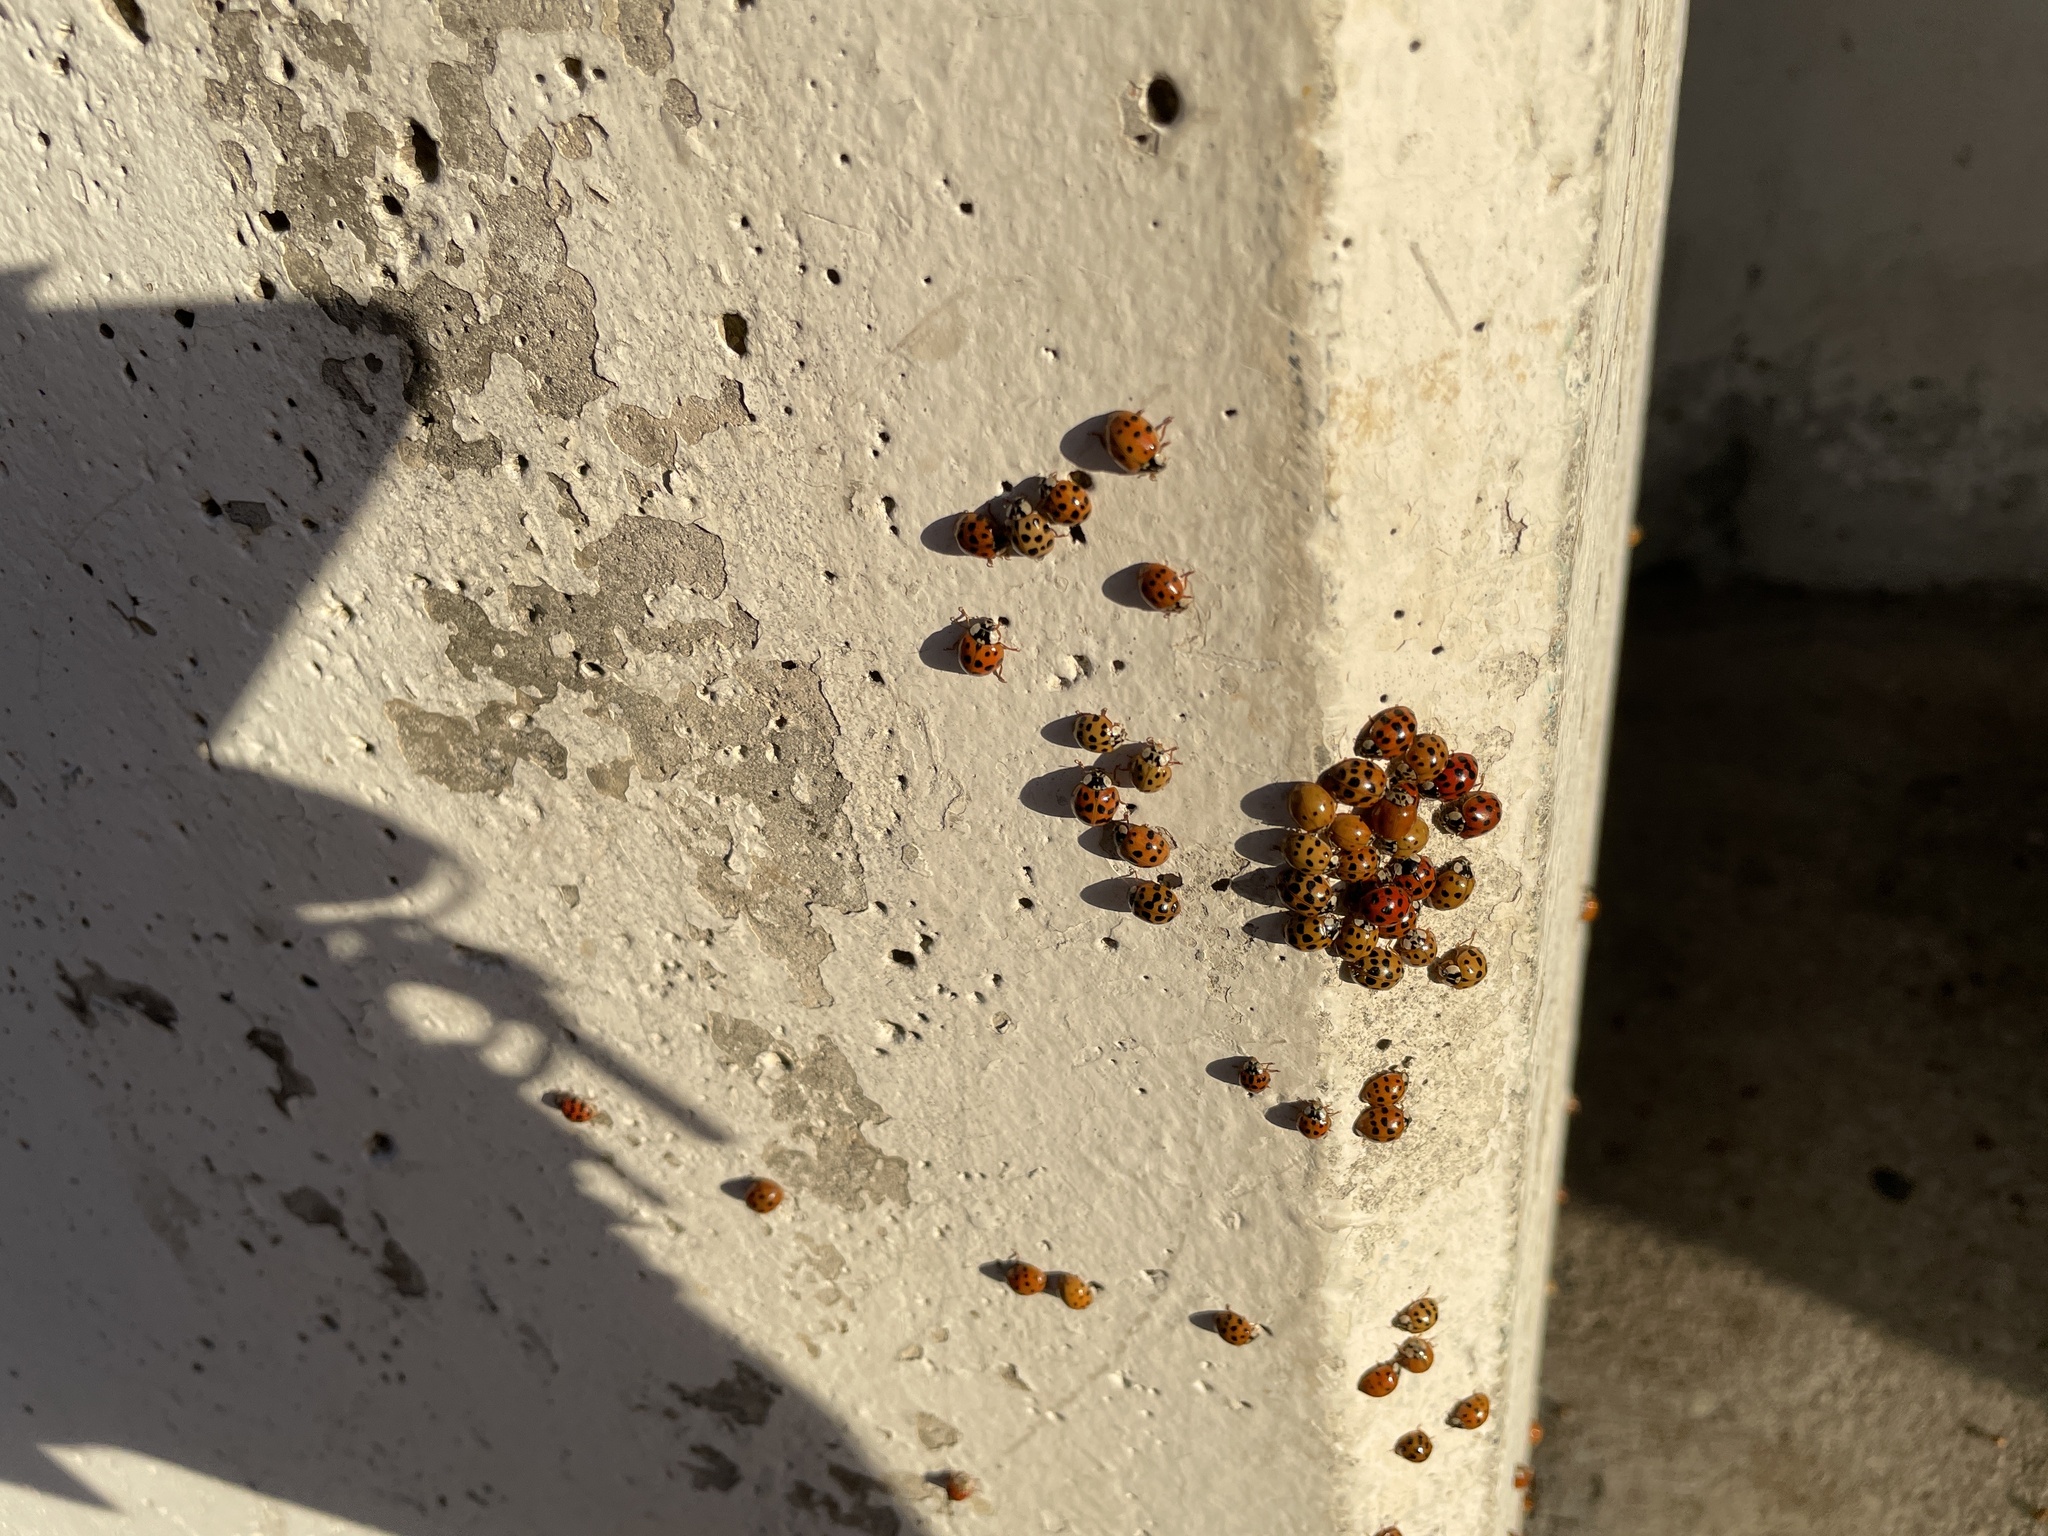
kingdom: Animalia
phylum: Arthropoda
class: Insecta
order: Coleoptera
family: Coccinellidae
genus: Harmonia
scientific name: Harmonia axyridis
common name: Harlequin ladybird
